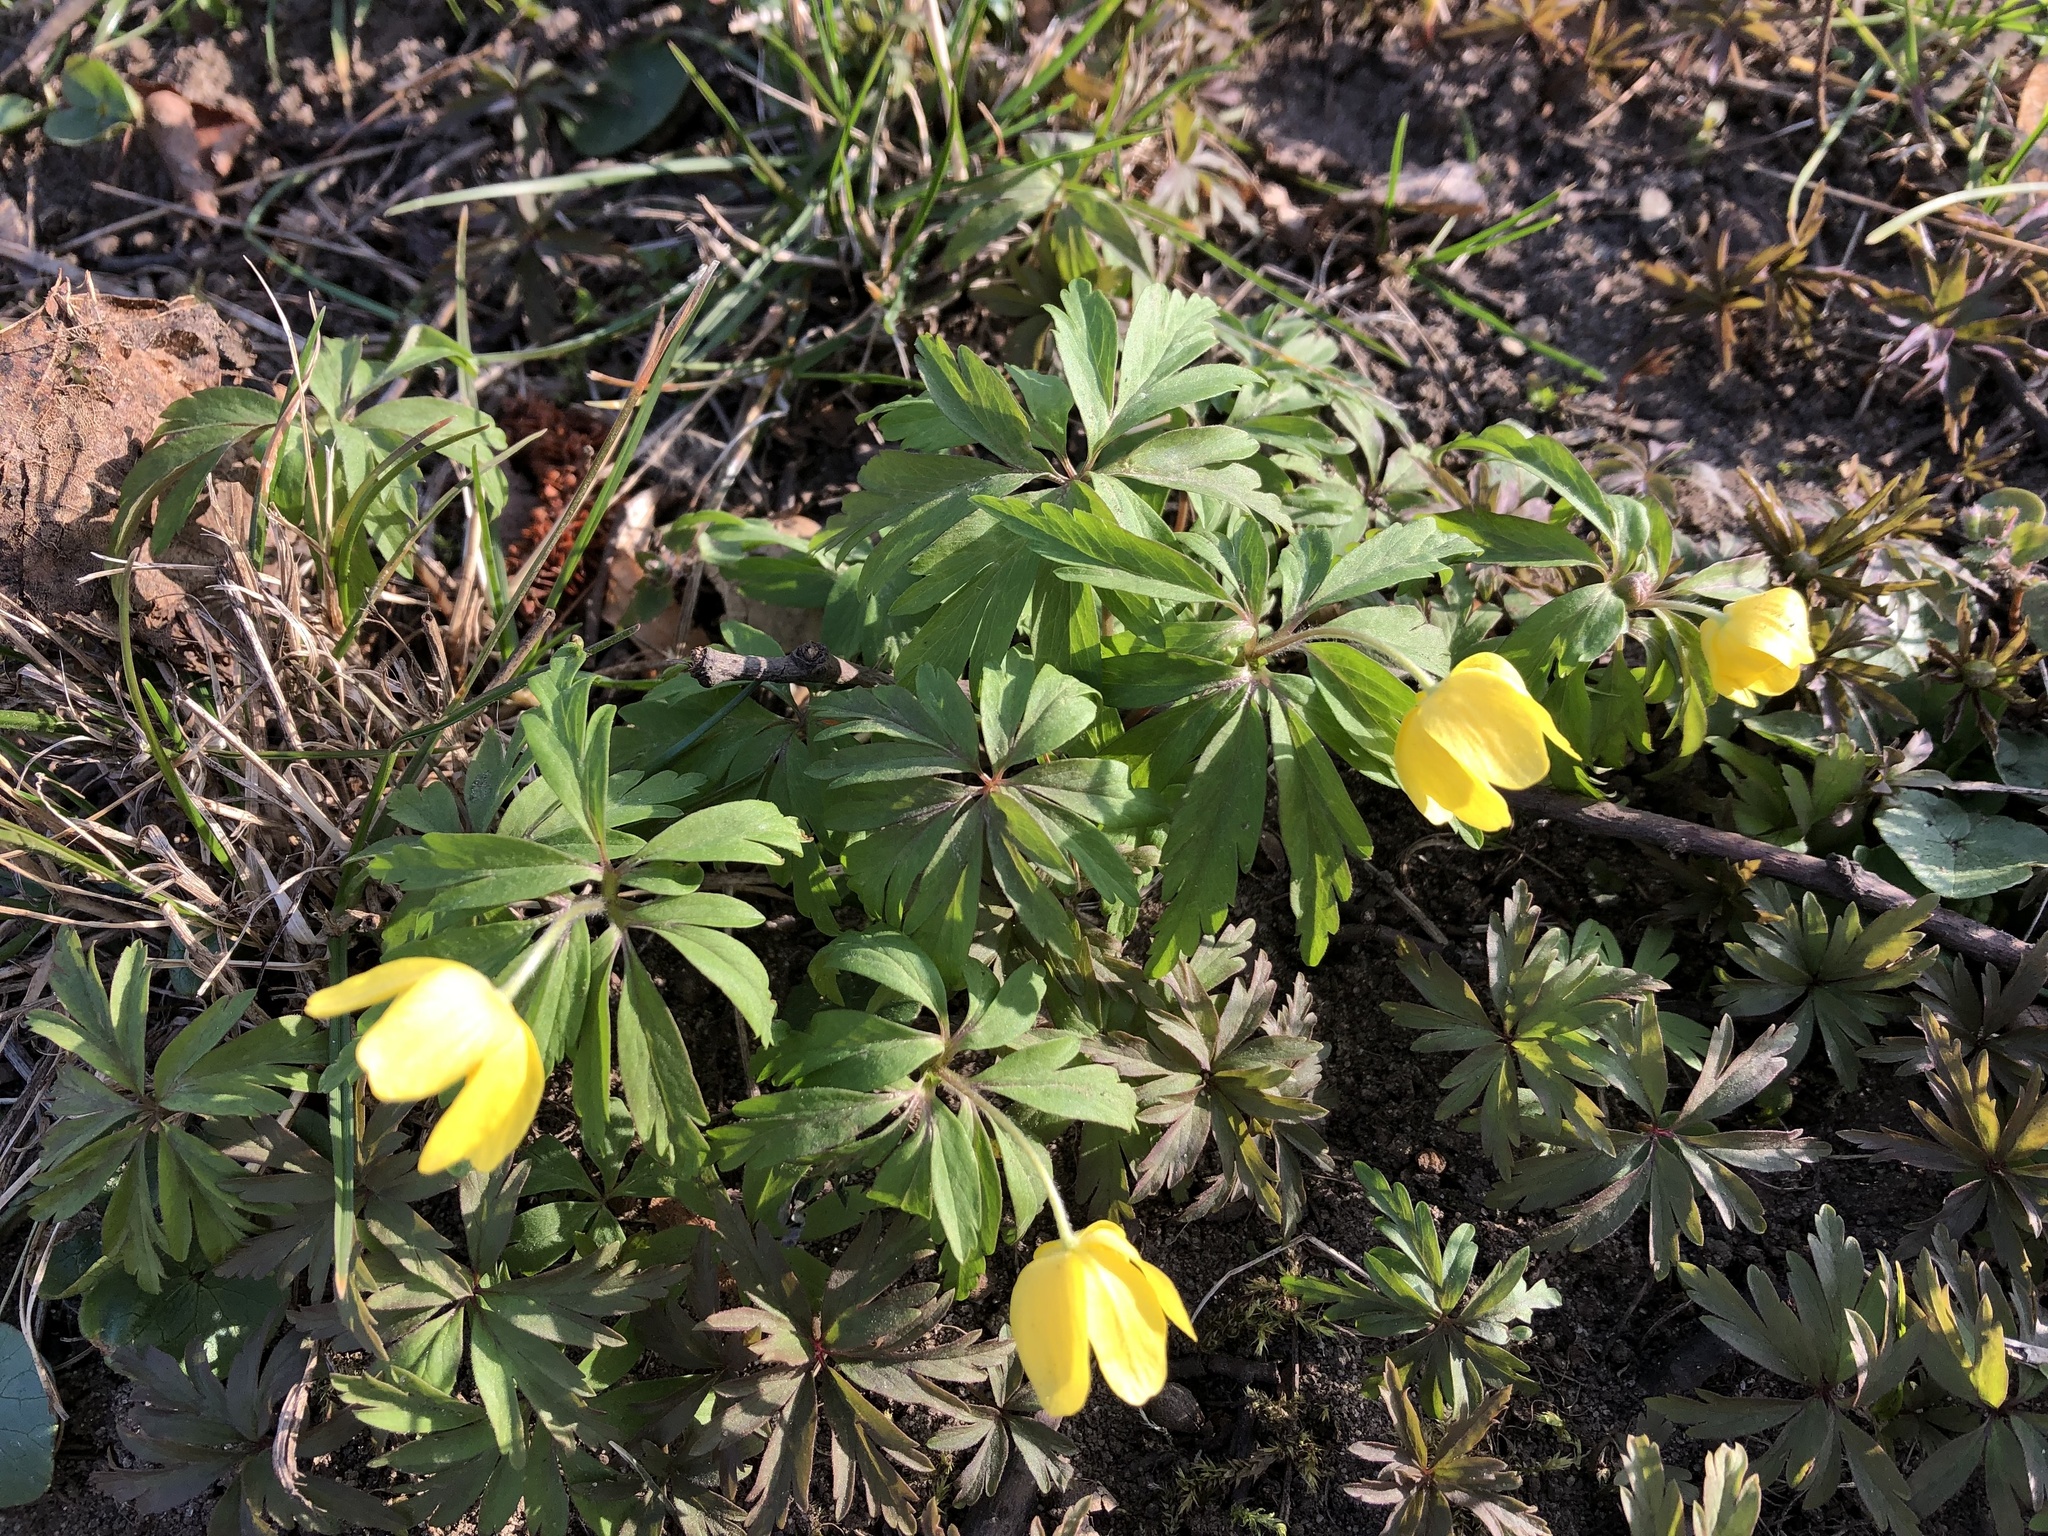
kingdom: Plantae
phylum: Tracheophyta
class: Magnoliopsida
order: Ranunculales
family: Ranunculaceae
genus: Anemone
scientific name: Anemone ranunculoides
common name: Yellow anemone
